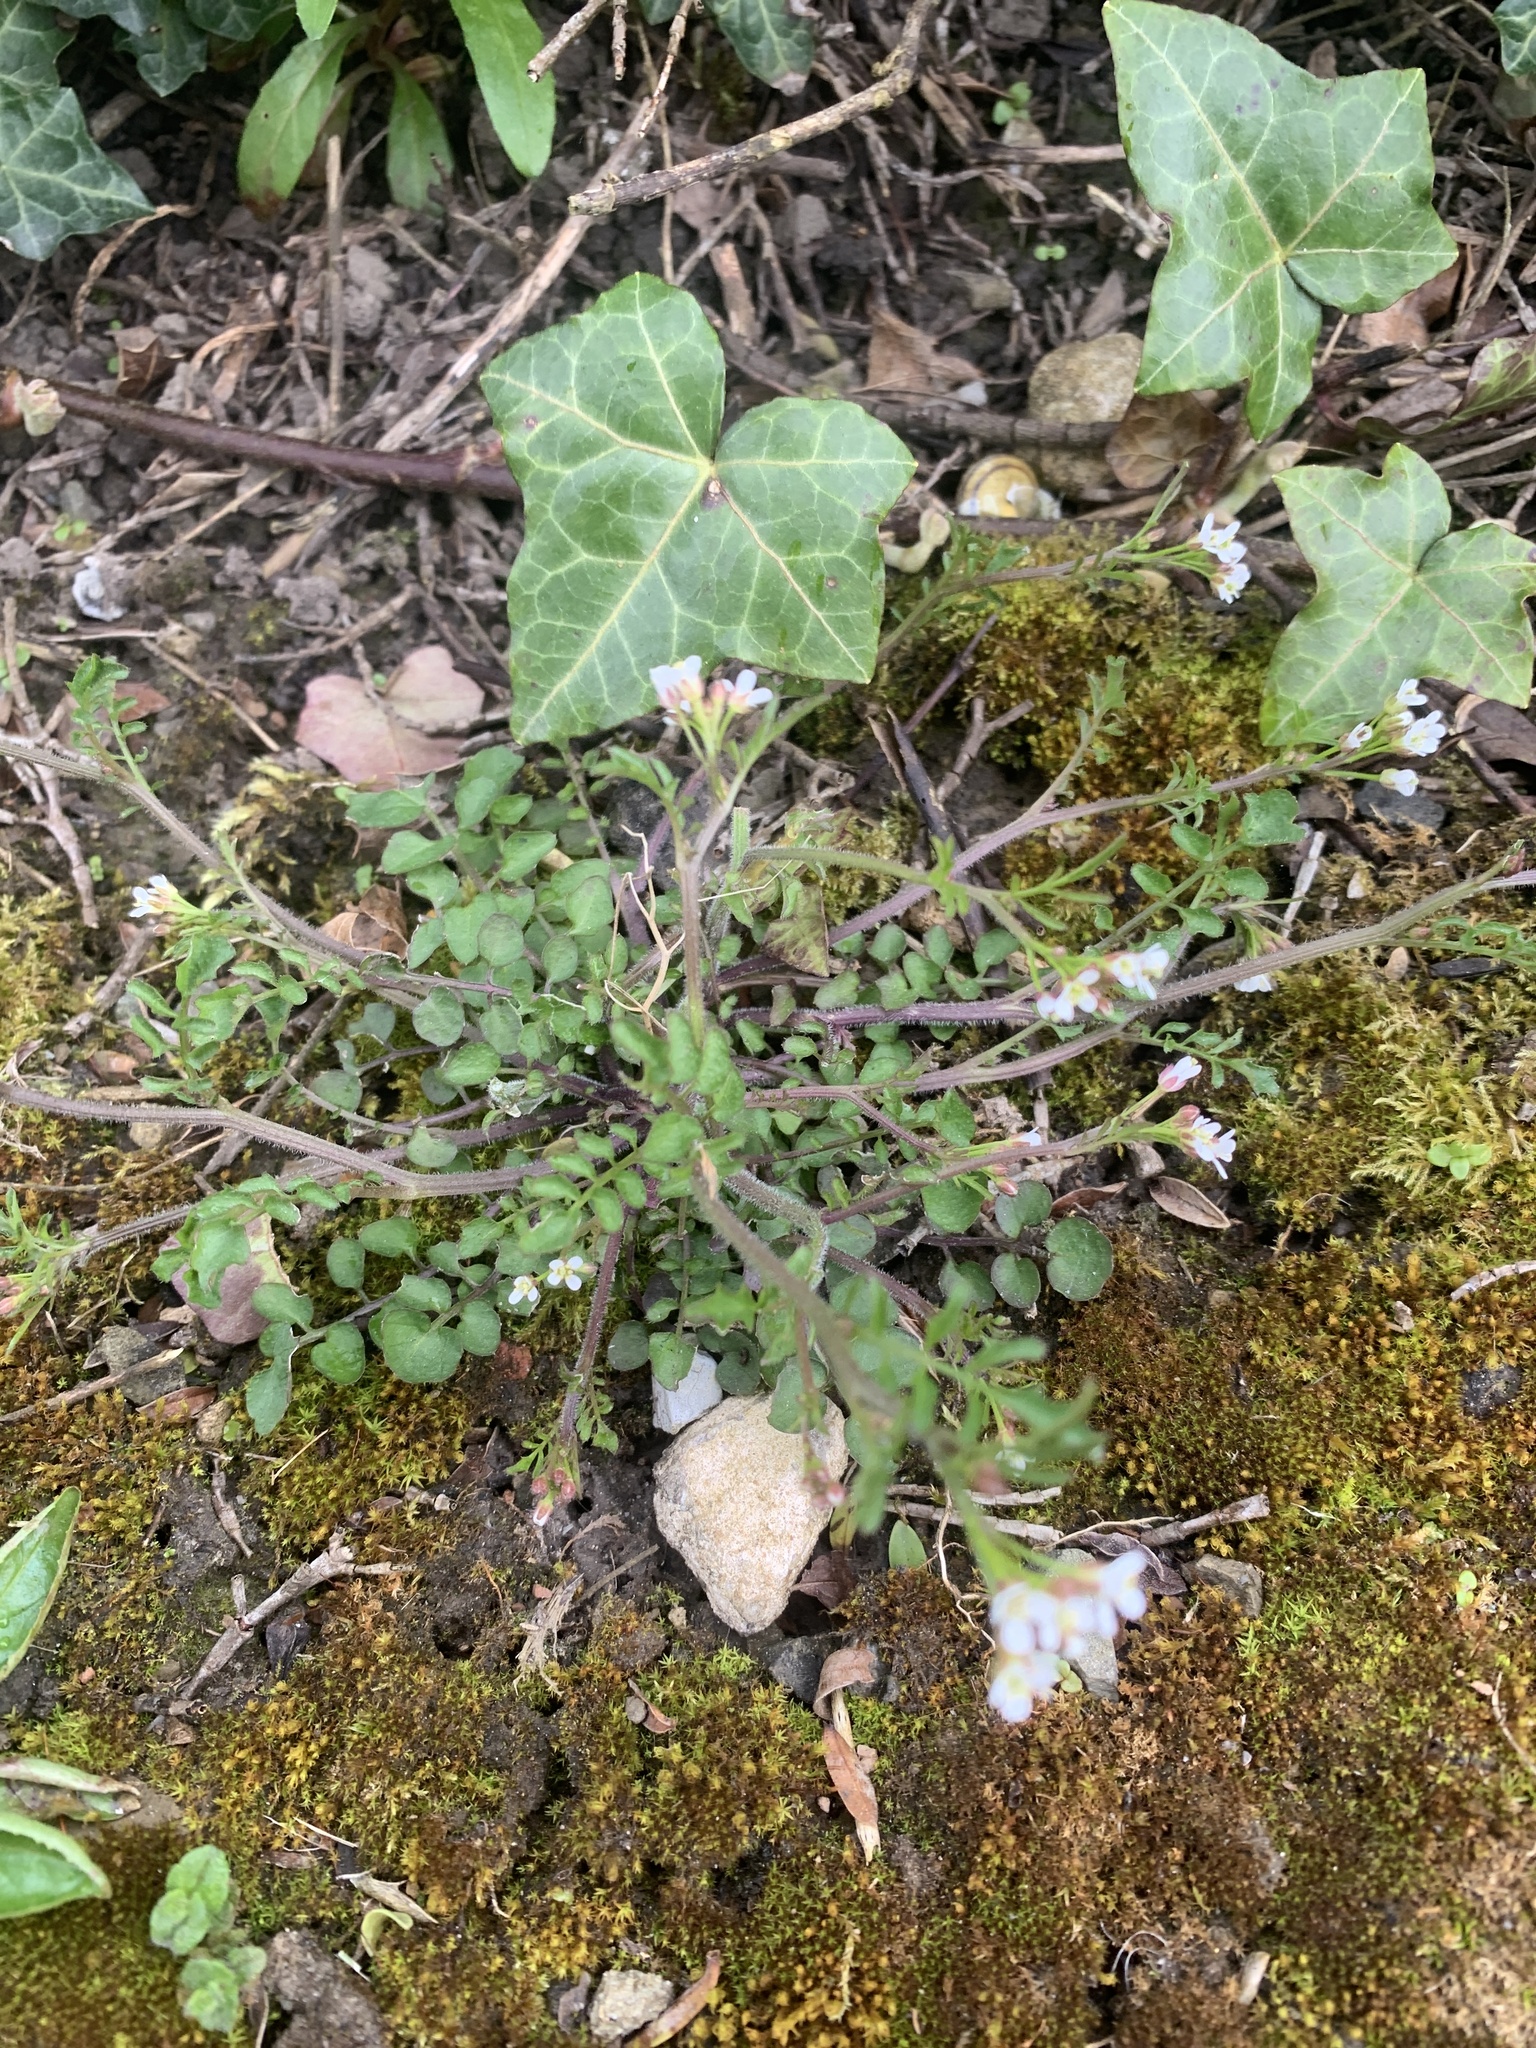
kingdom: Plantae
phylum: Tracheophyta
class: Magnoliopsida
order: Brassicales
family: Brassicaceae
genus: Cardamine
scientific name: Cardamine hirsuta
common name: Hairy bittercress
